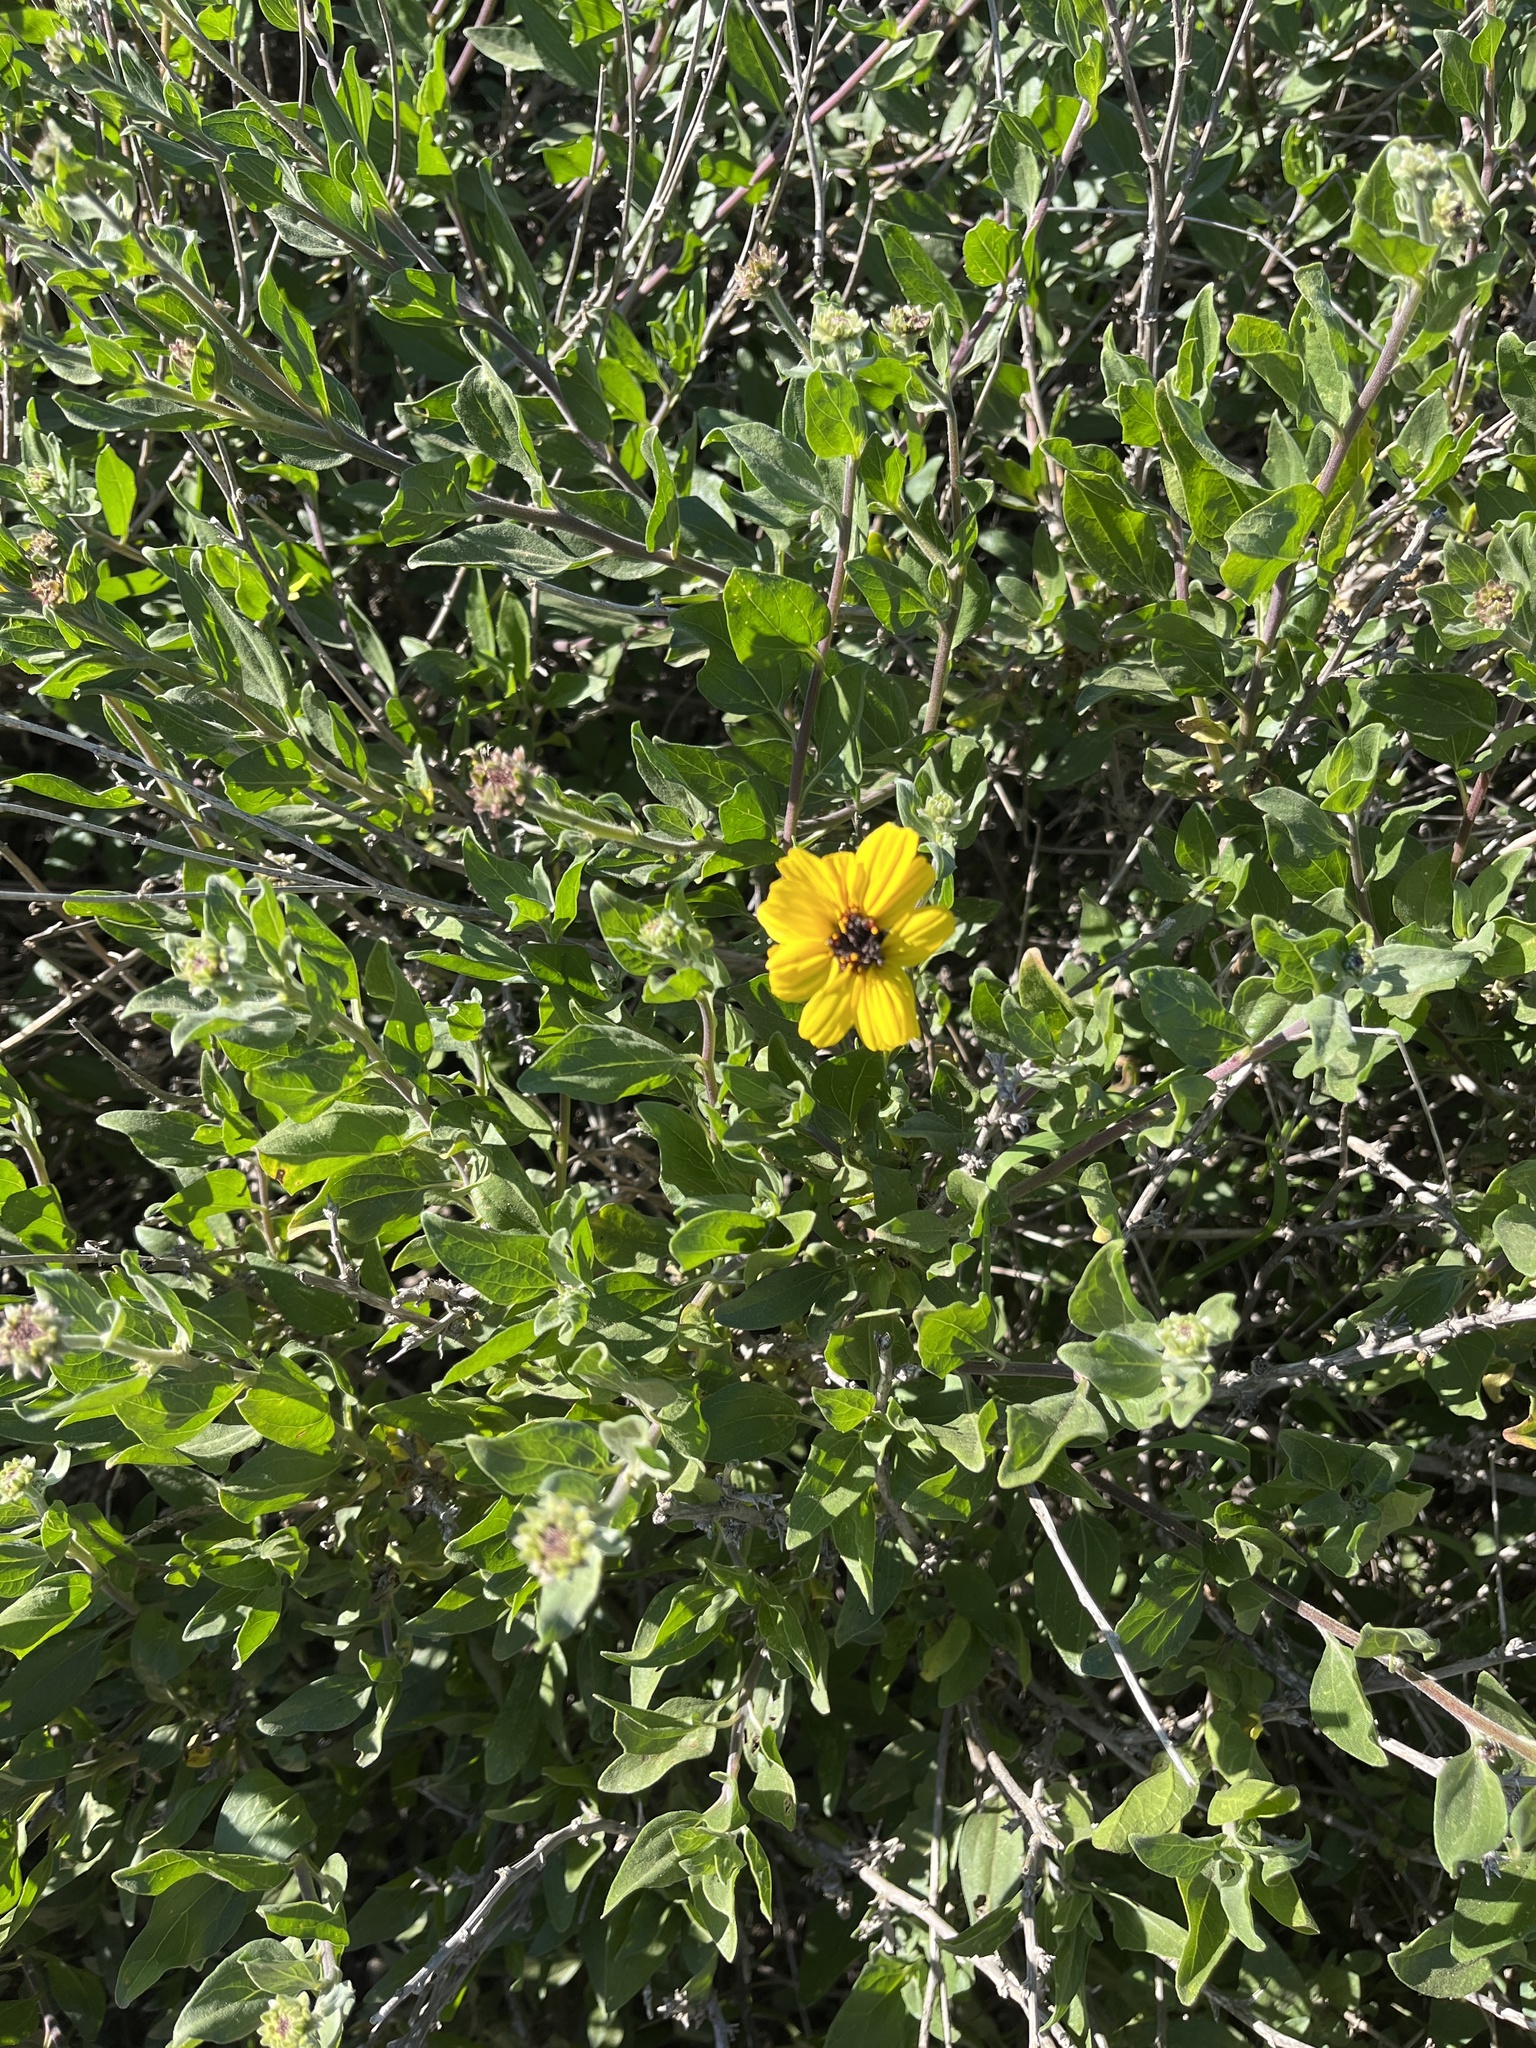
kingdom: Plantae
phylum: Tracheophyta
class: Magnoliopsida
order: Asterales
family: Asteraceae
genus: Encelia
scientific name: Encelia californica
